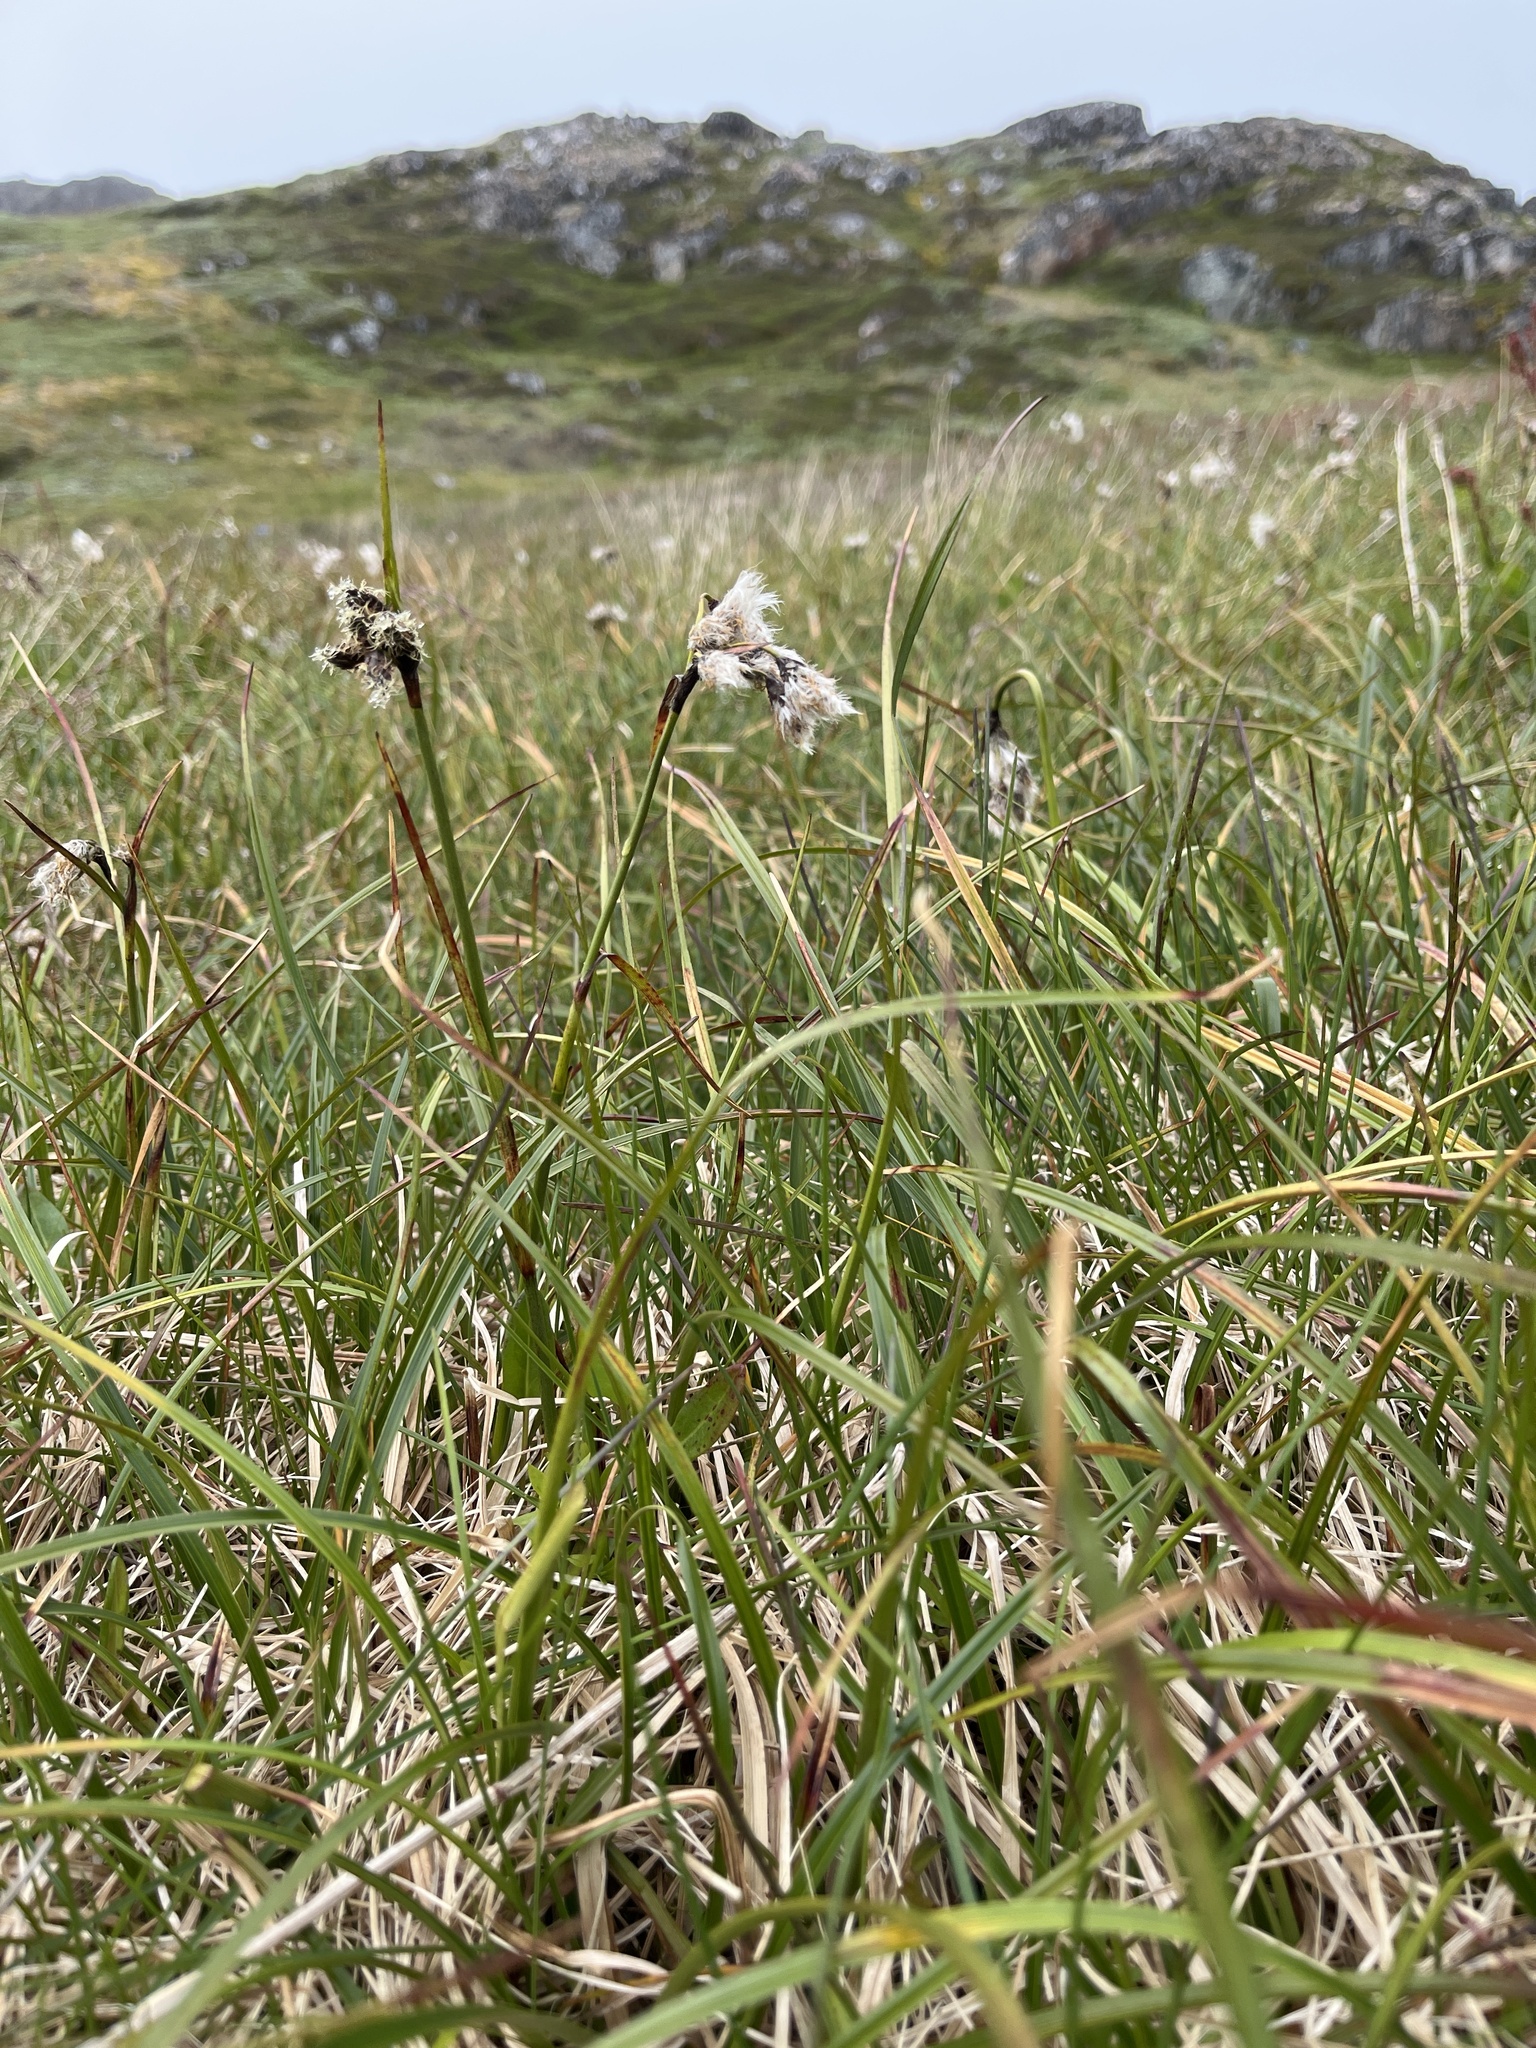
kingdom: Plantae
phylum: Tracheophyta
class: Liliopsida
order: Poales
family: Cyperaceae
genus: Eriophorum
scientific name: Eriophorum angustifolium
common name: Common cottongrass
